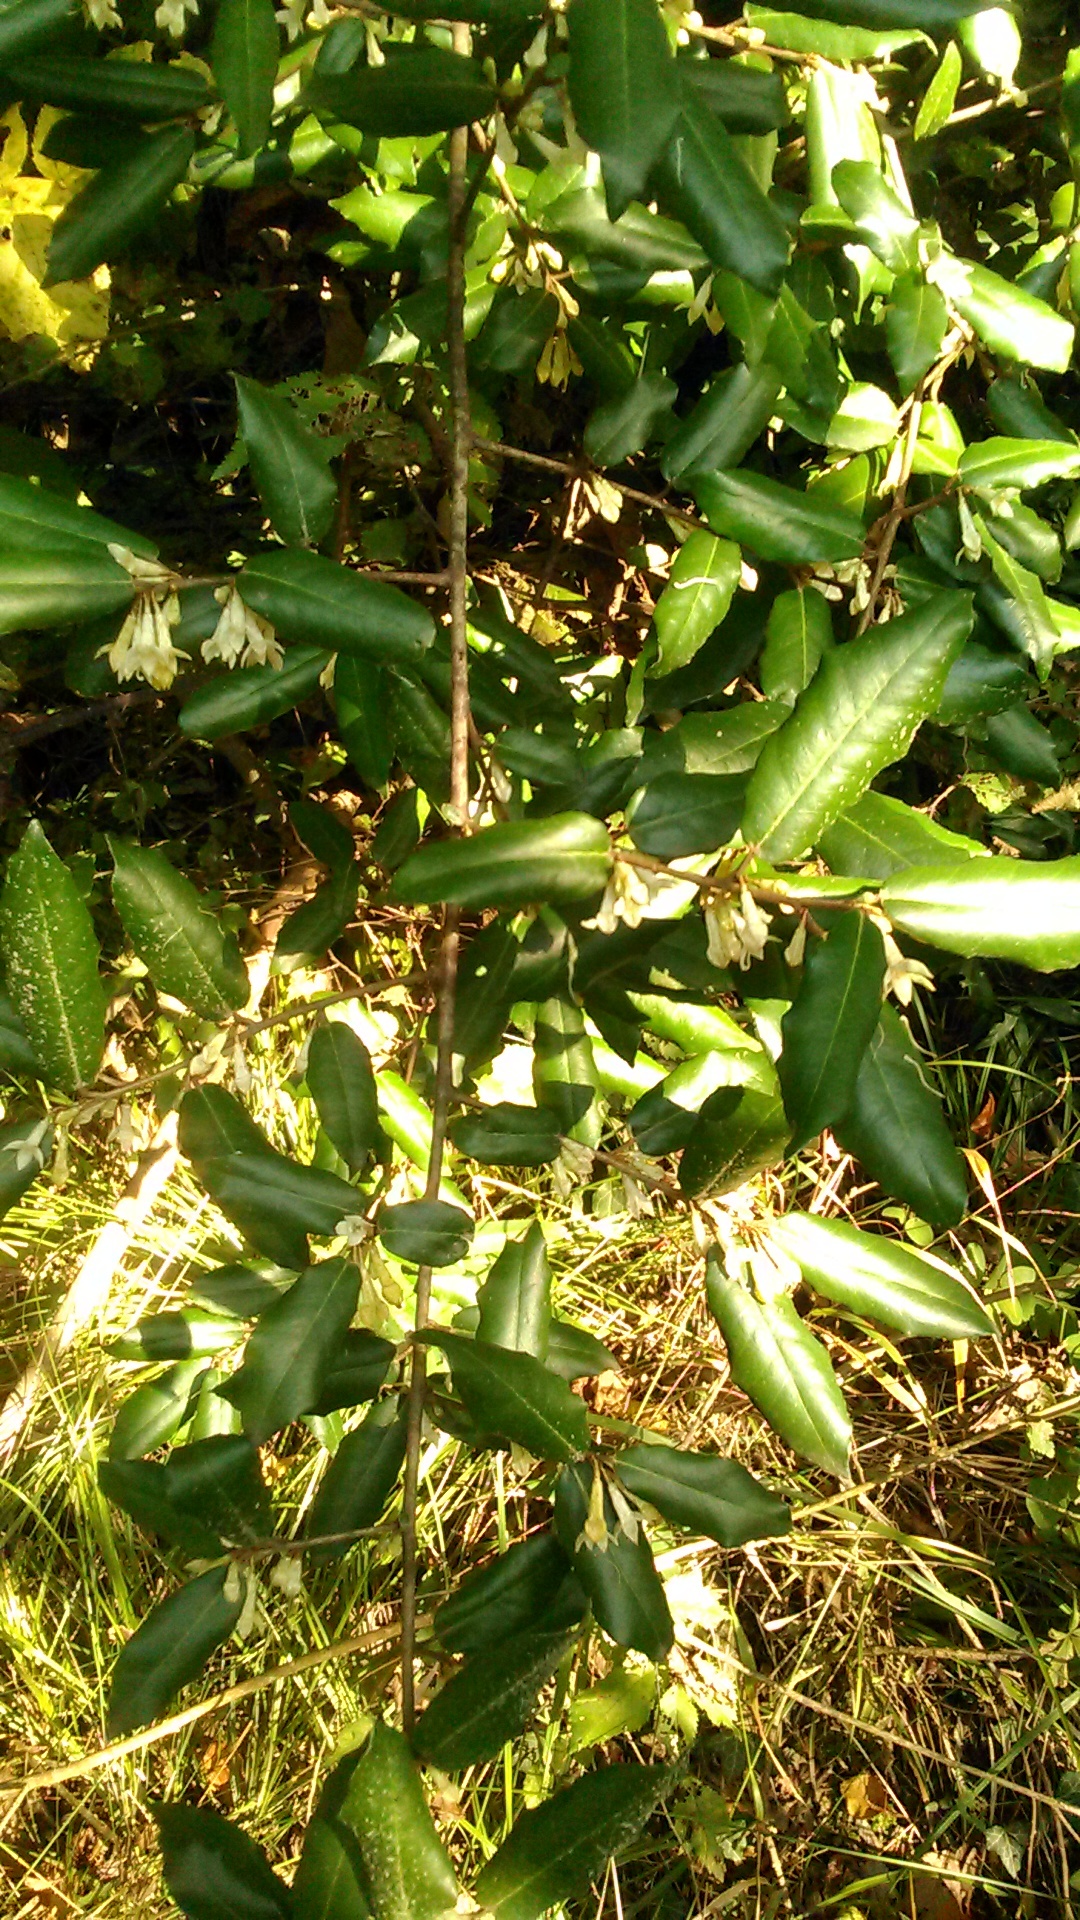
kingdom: Plantae
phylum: Tracheophyta
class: Magnoliopsida
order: Rosales
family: Elaeagnaceae
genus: Elaeagnus
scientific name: Elaeagnus pungens
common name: Spiny oleaster
